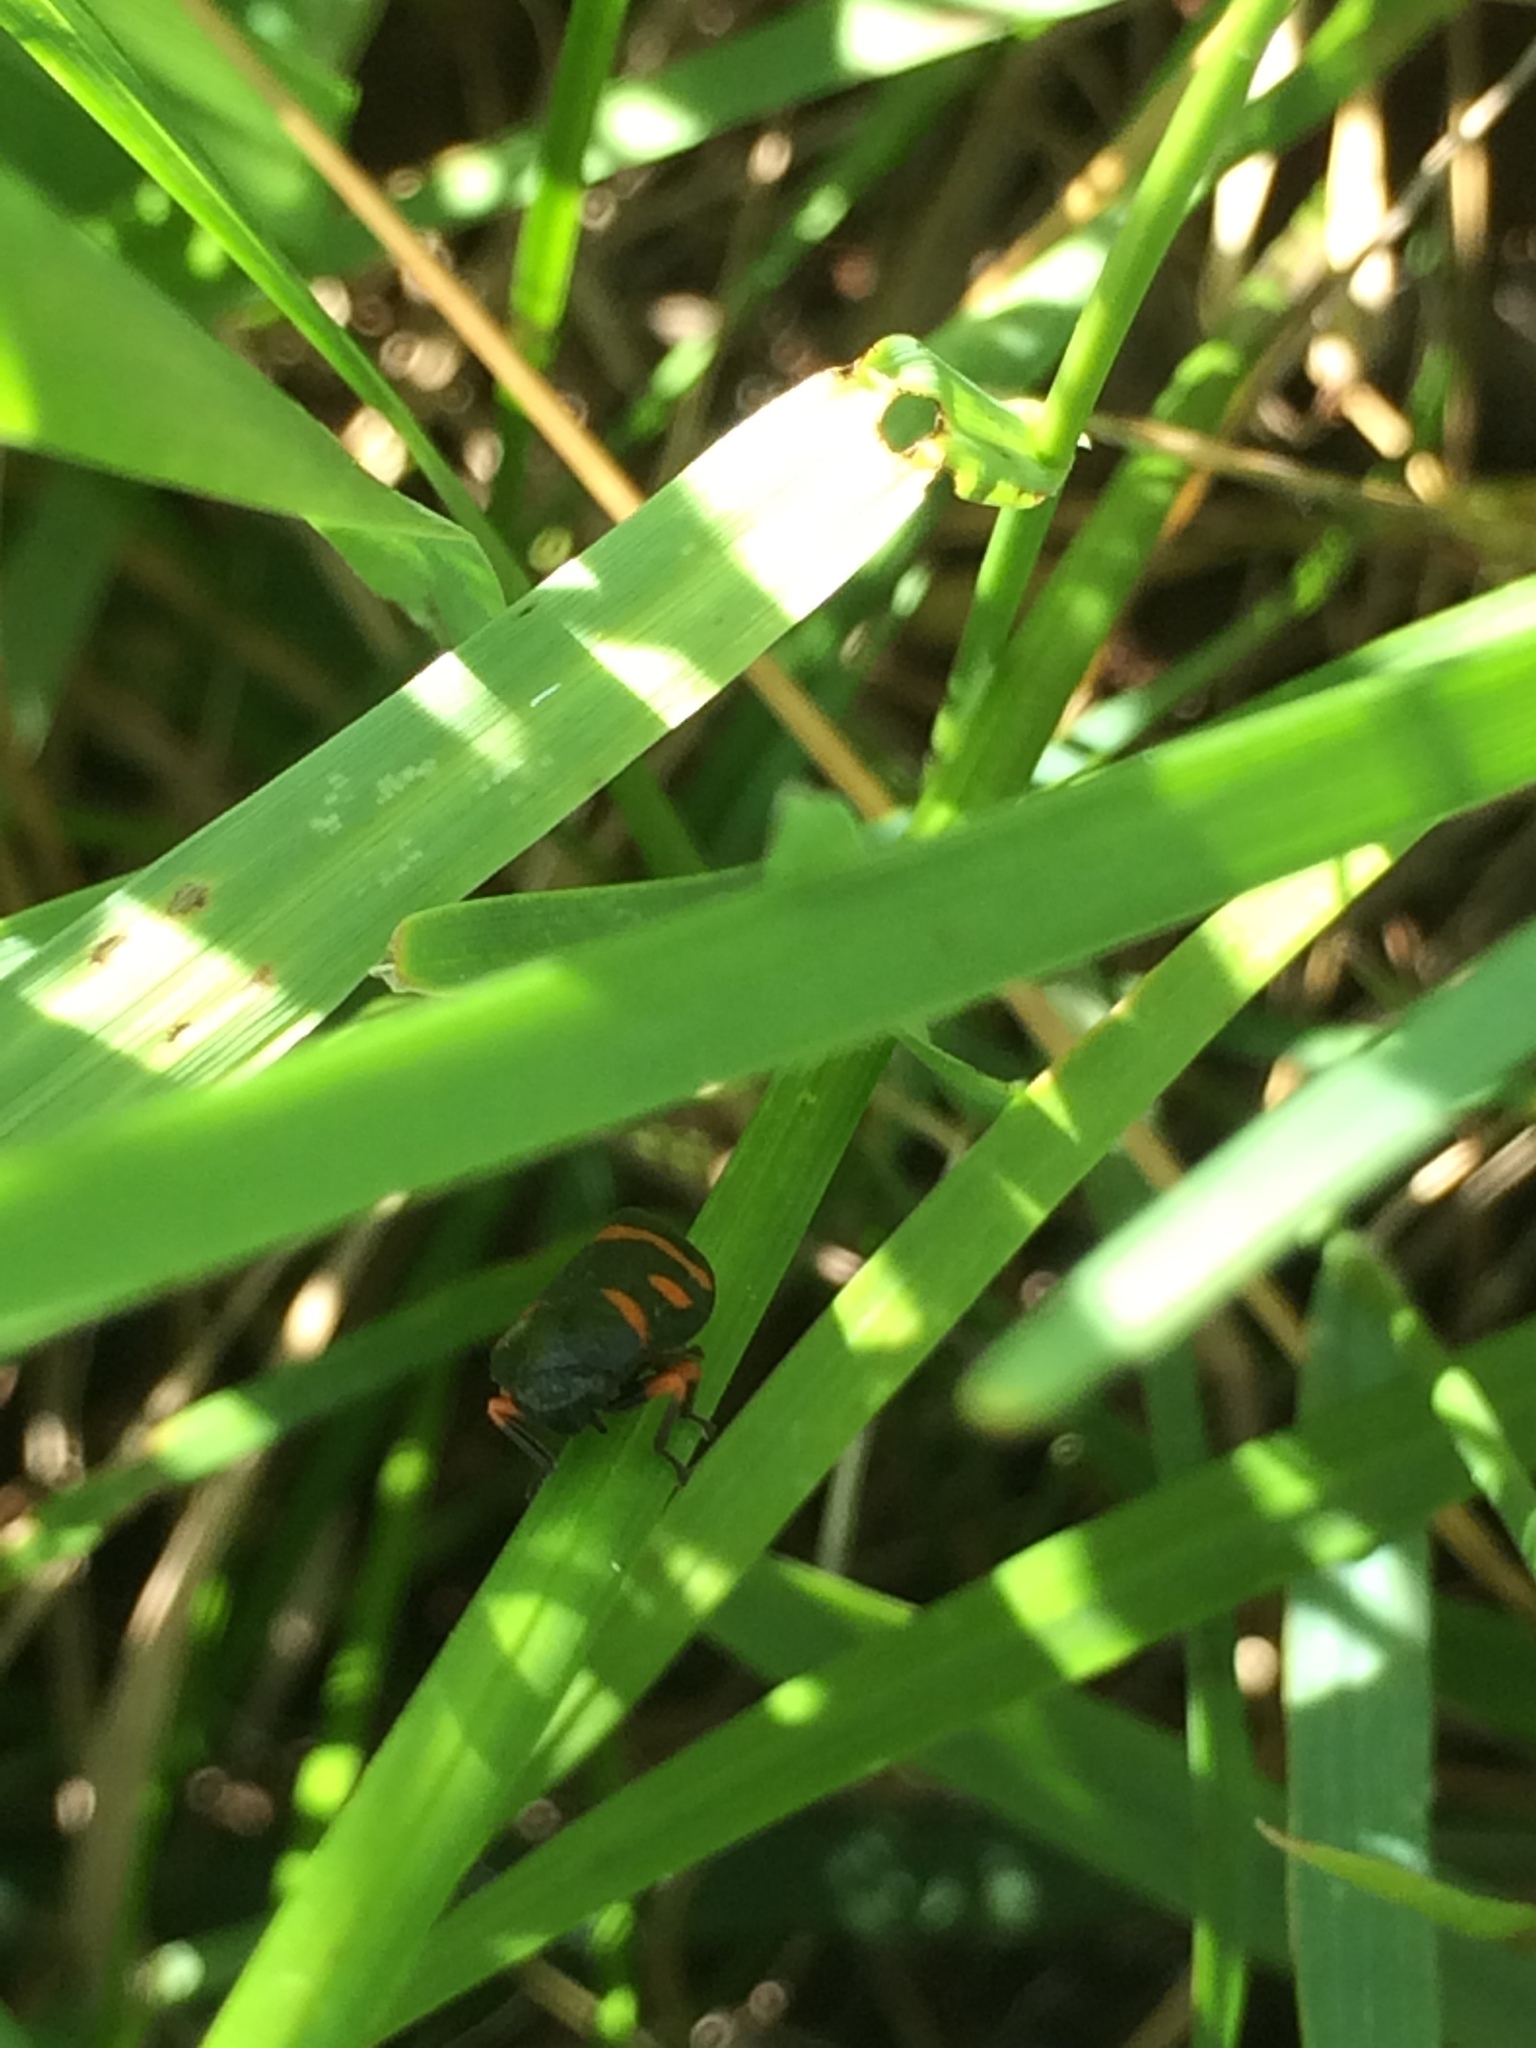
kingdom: Animalia
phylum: Arthropoda
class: Insecta
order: Hemiptera
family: Cercopidae
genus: Cercopis
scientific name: Cercopis intermedia
